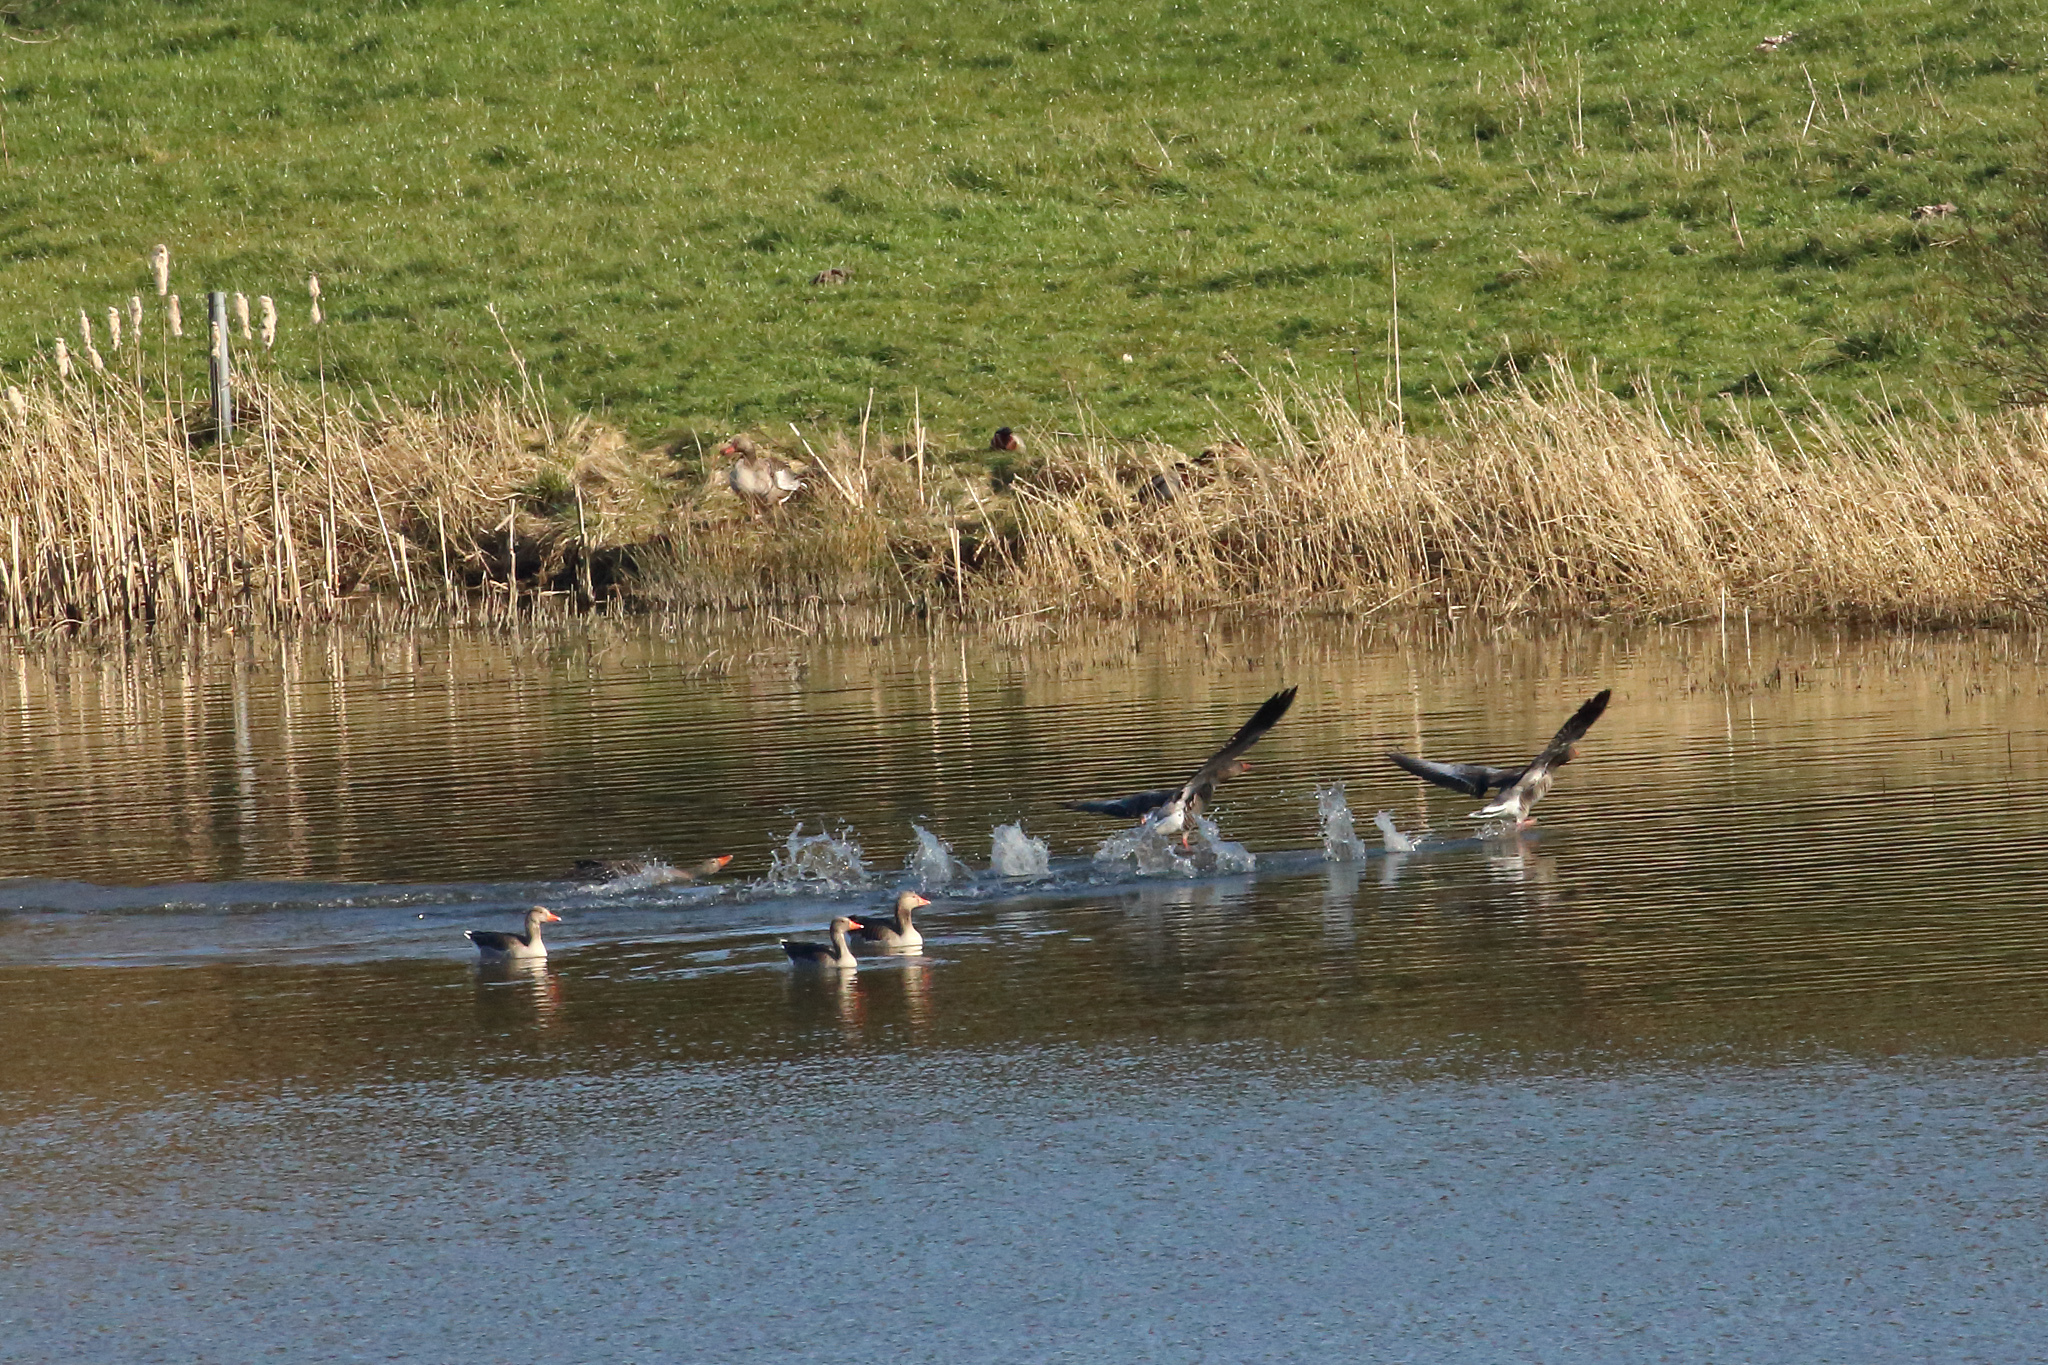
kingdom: Animalia
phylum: Chordata
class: Aves
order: Anseriformes
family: Anatidae
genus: Anser
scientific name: Anser anser
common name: Greylag goose
